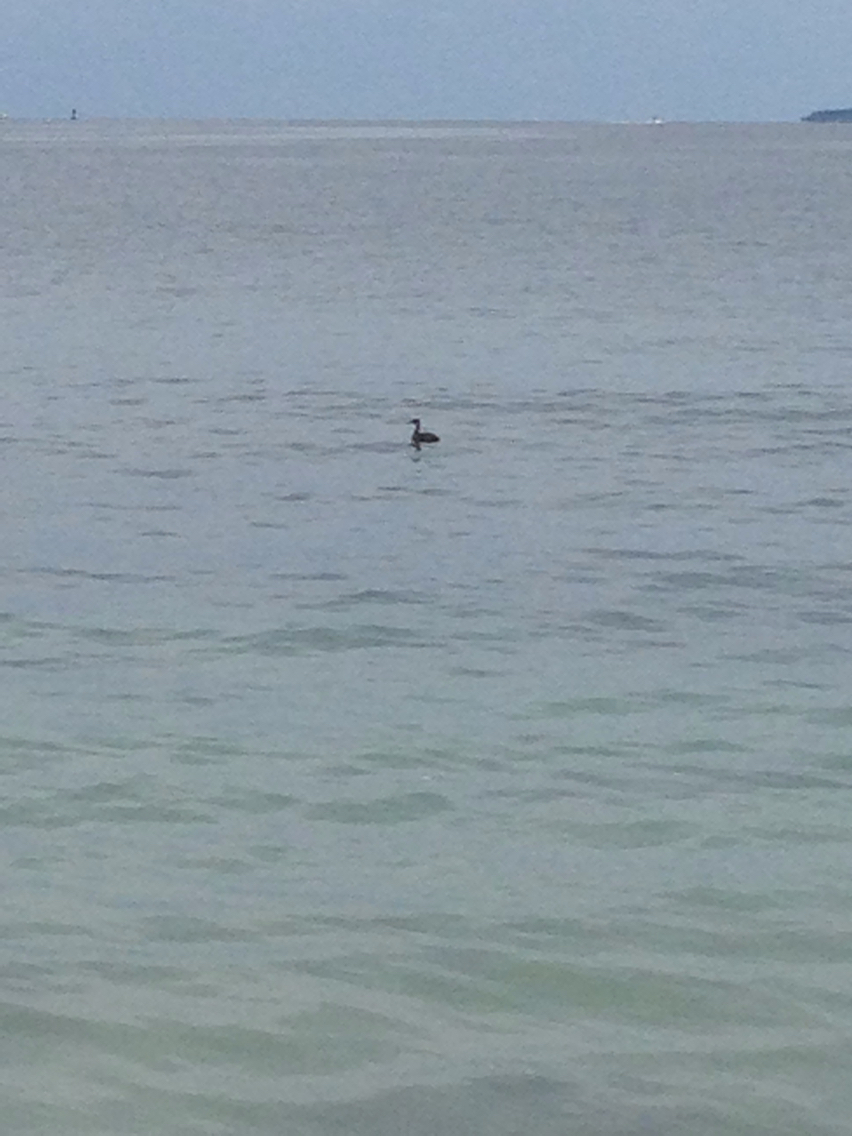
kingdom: Animalia
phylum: Chordata
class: Aves
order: Podicipediformes
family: Podicipedidae
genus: Podiceps
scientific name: Podiceps grisegena
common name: Red-necked grebe
